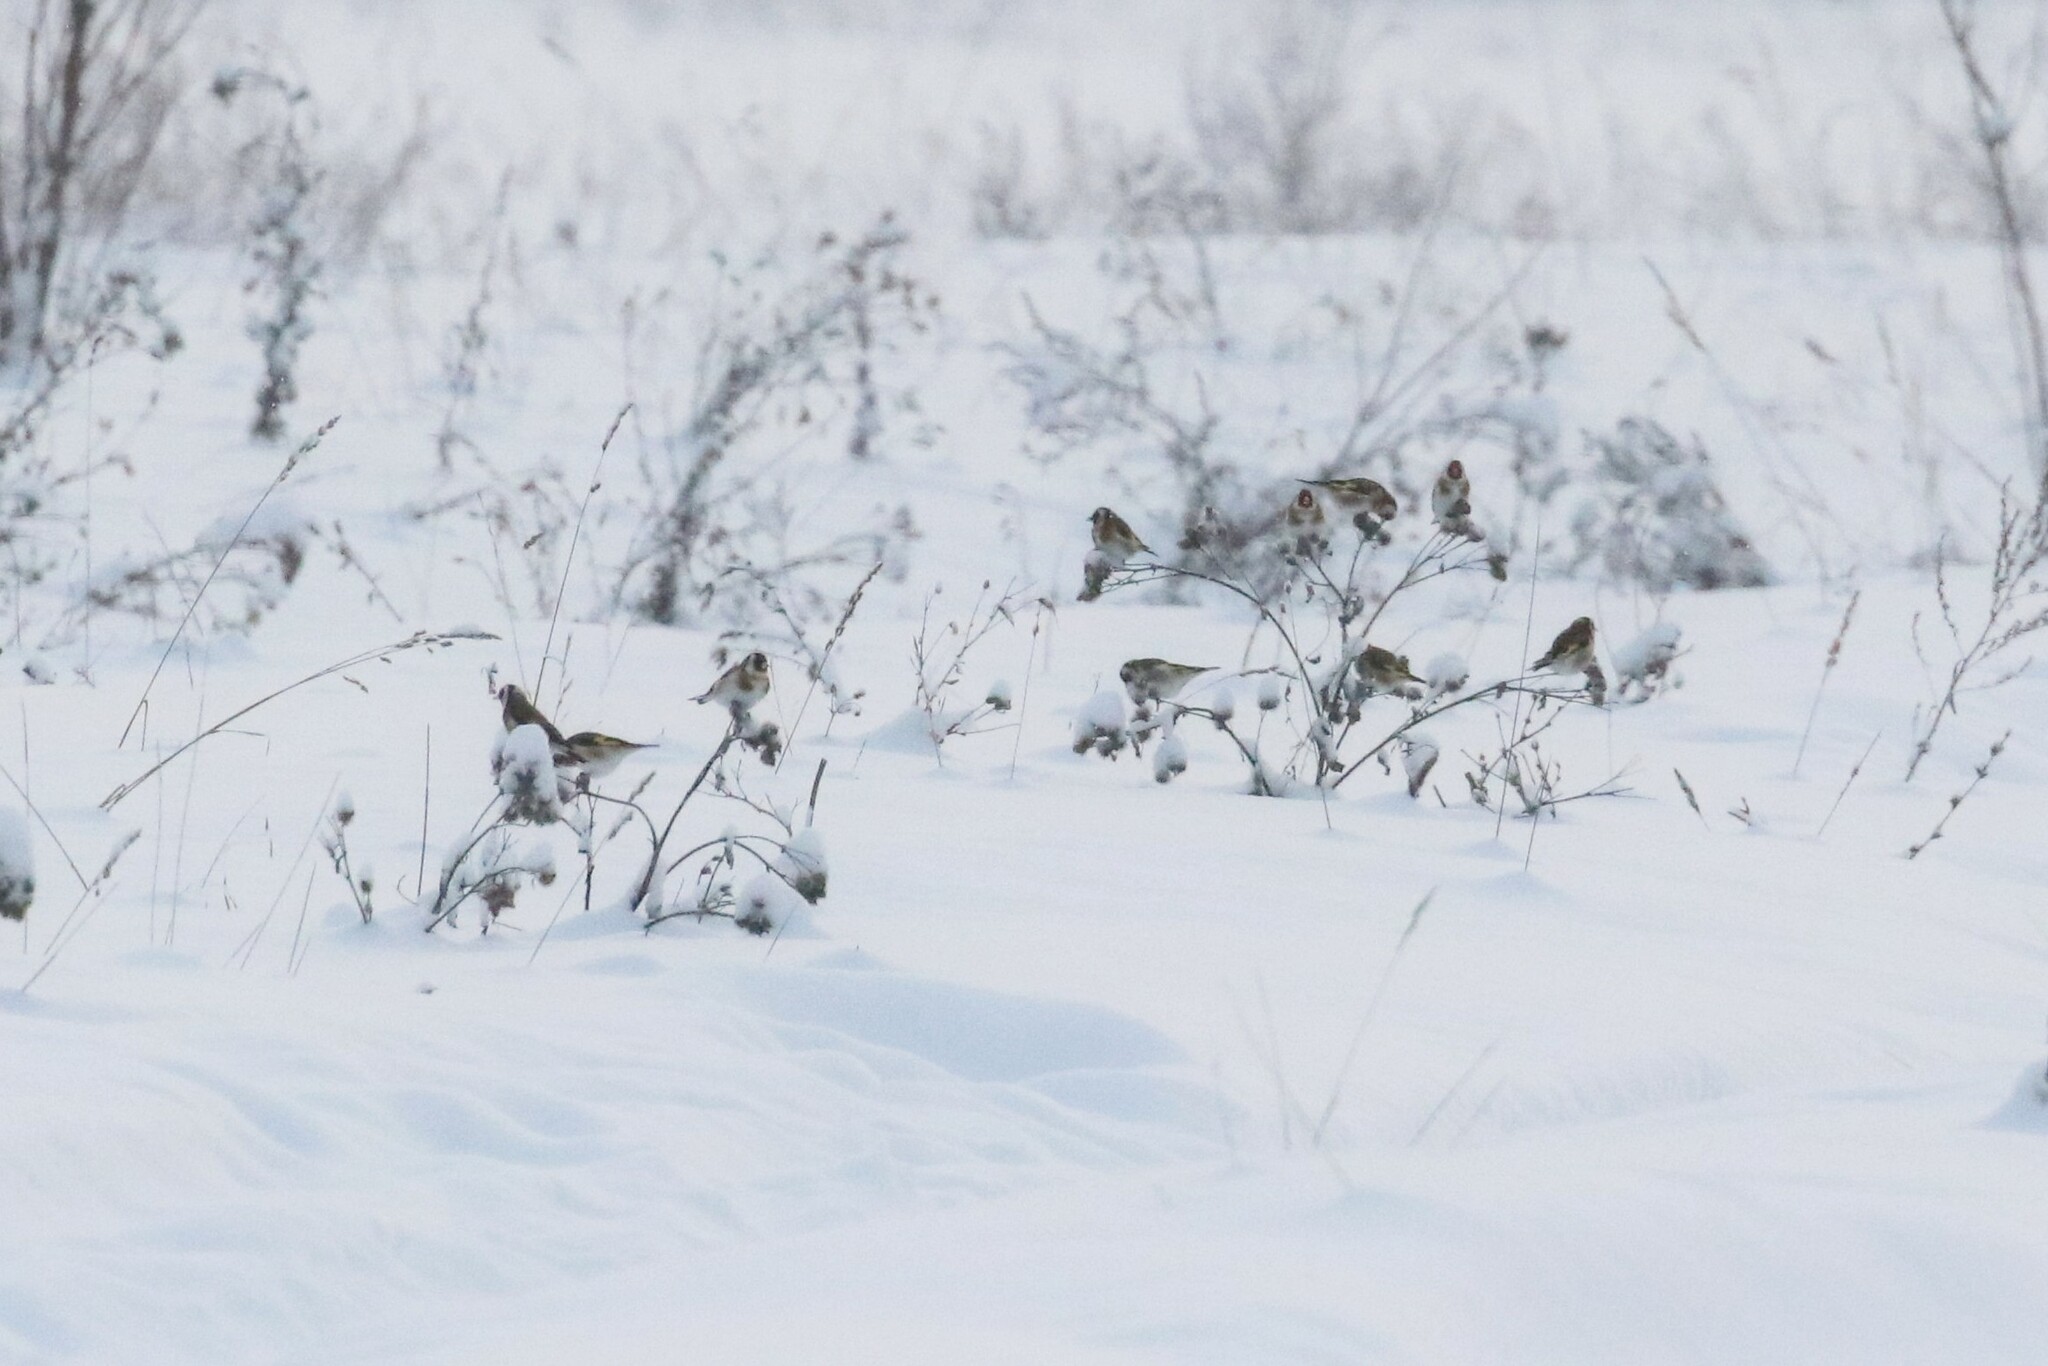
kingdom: Animalia
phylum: Chordata
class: Aves
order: Passeriformes
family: Fringillidae
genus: Carduelis
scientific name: Carduelis carduelis
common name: European goldfinch
